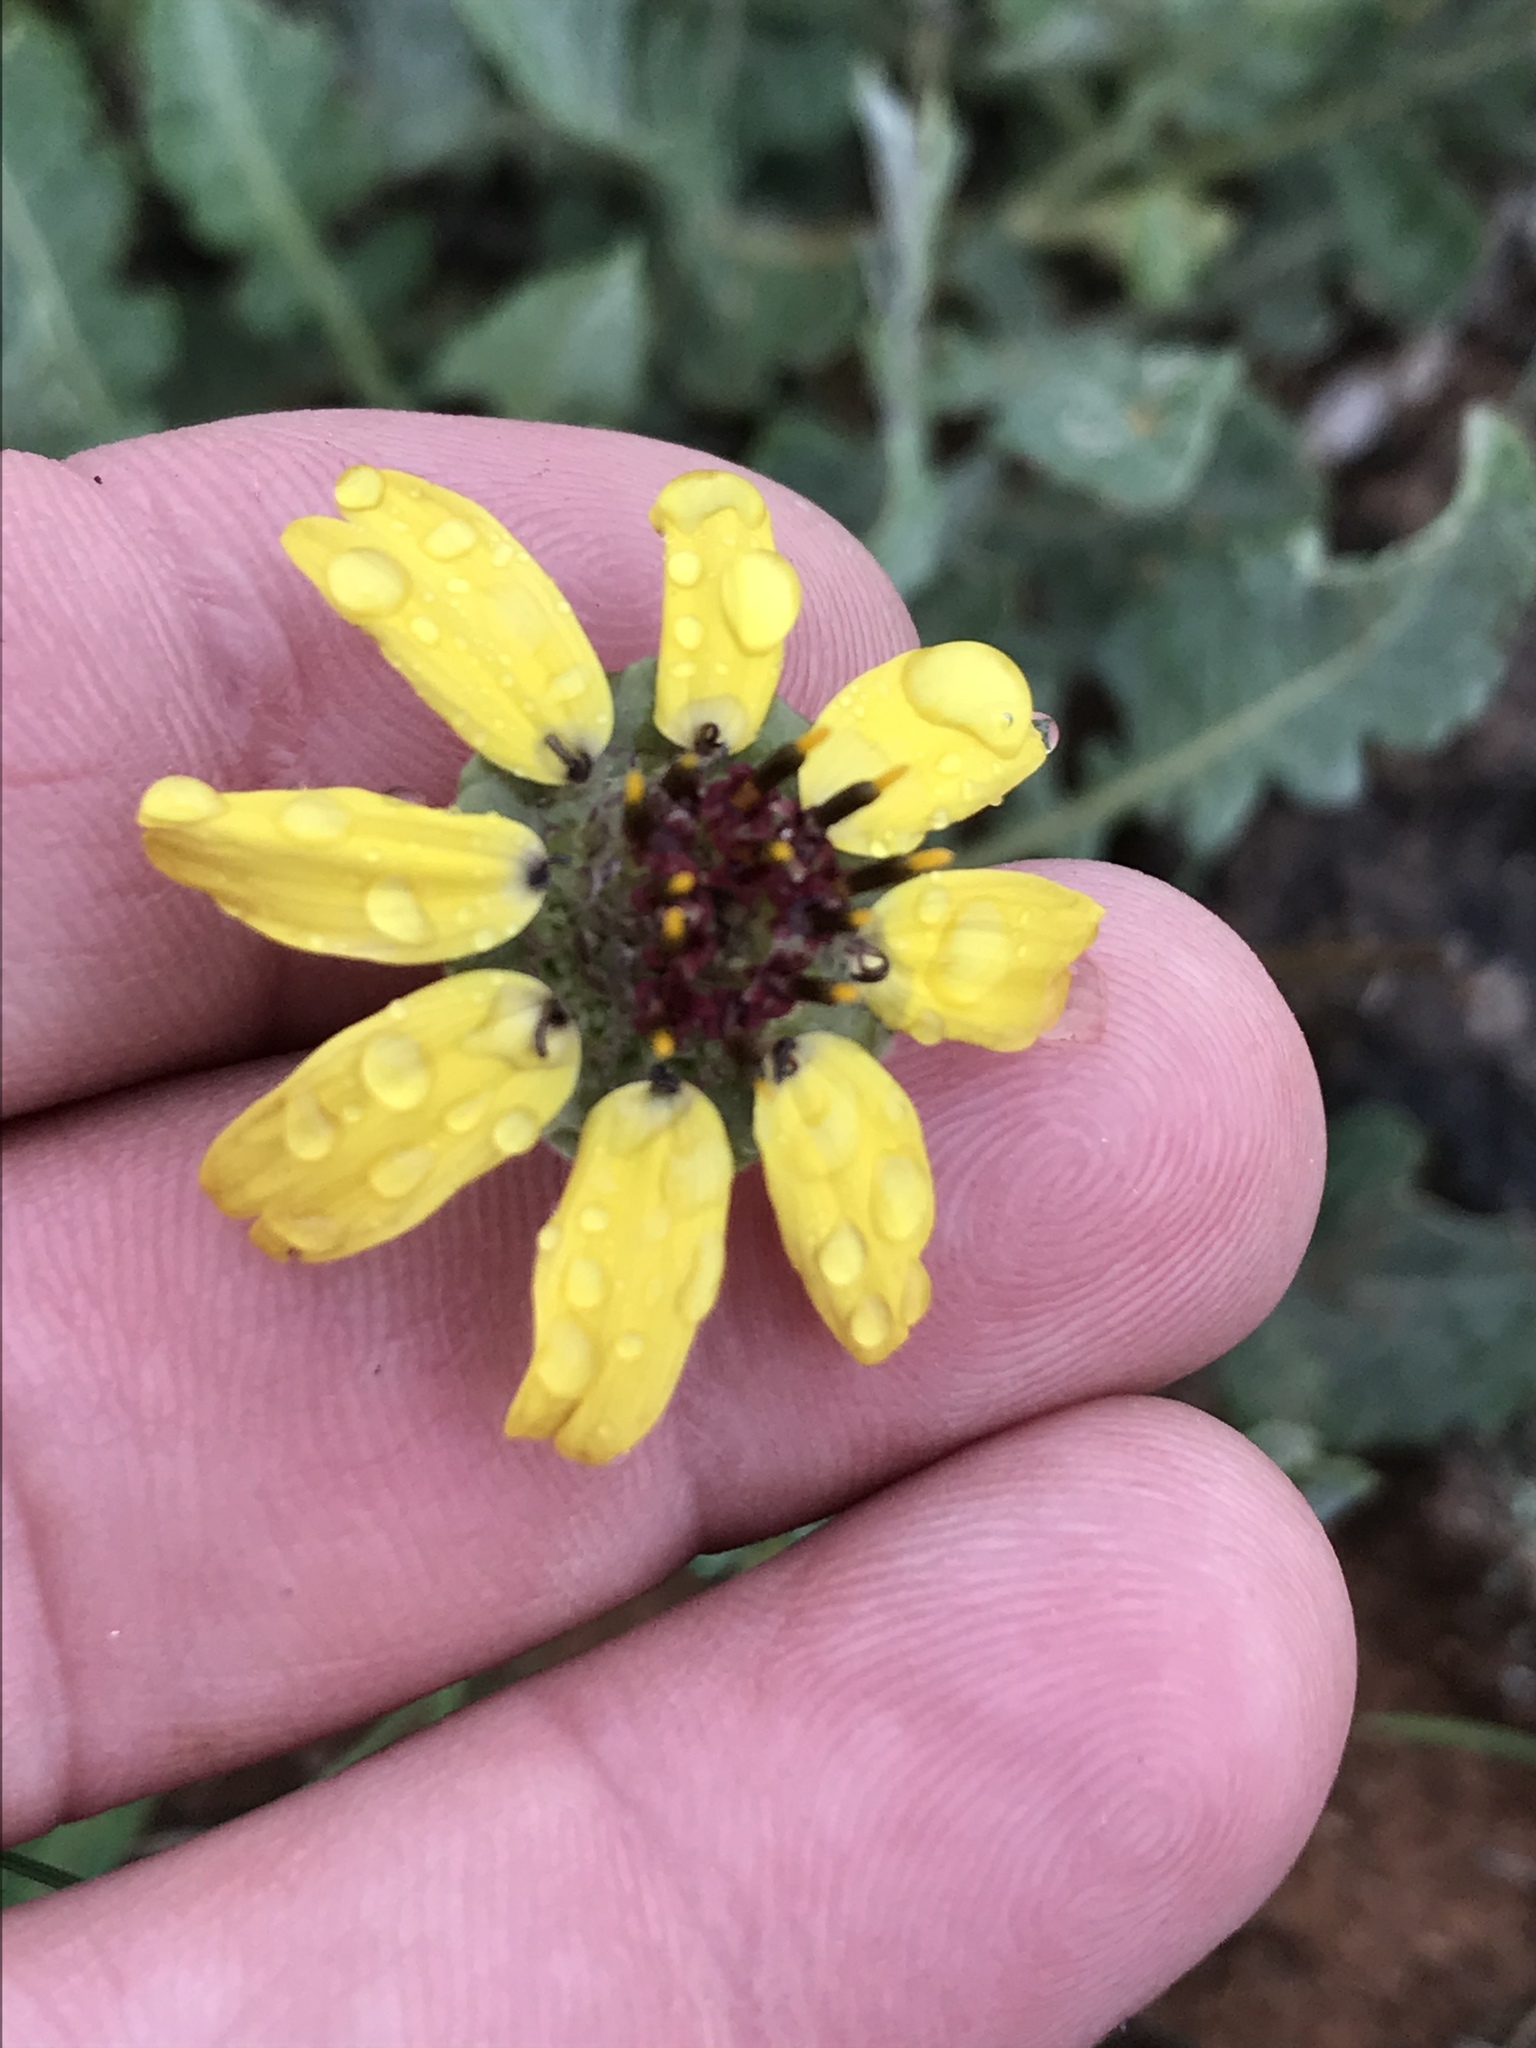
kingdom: Plantae
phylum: Tracheophyta
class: Magnoliopsida
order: Asterales
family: Asteraceae
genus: Berlandiera
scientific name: Berlandiera lyrata
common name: Chocolate-flower
